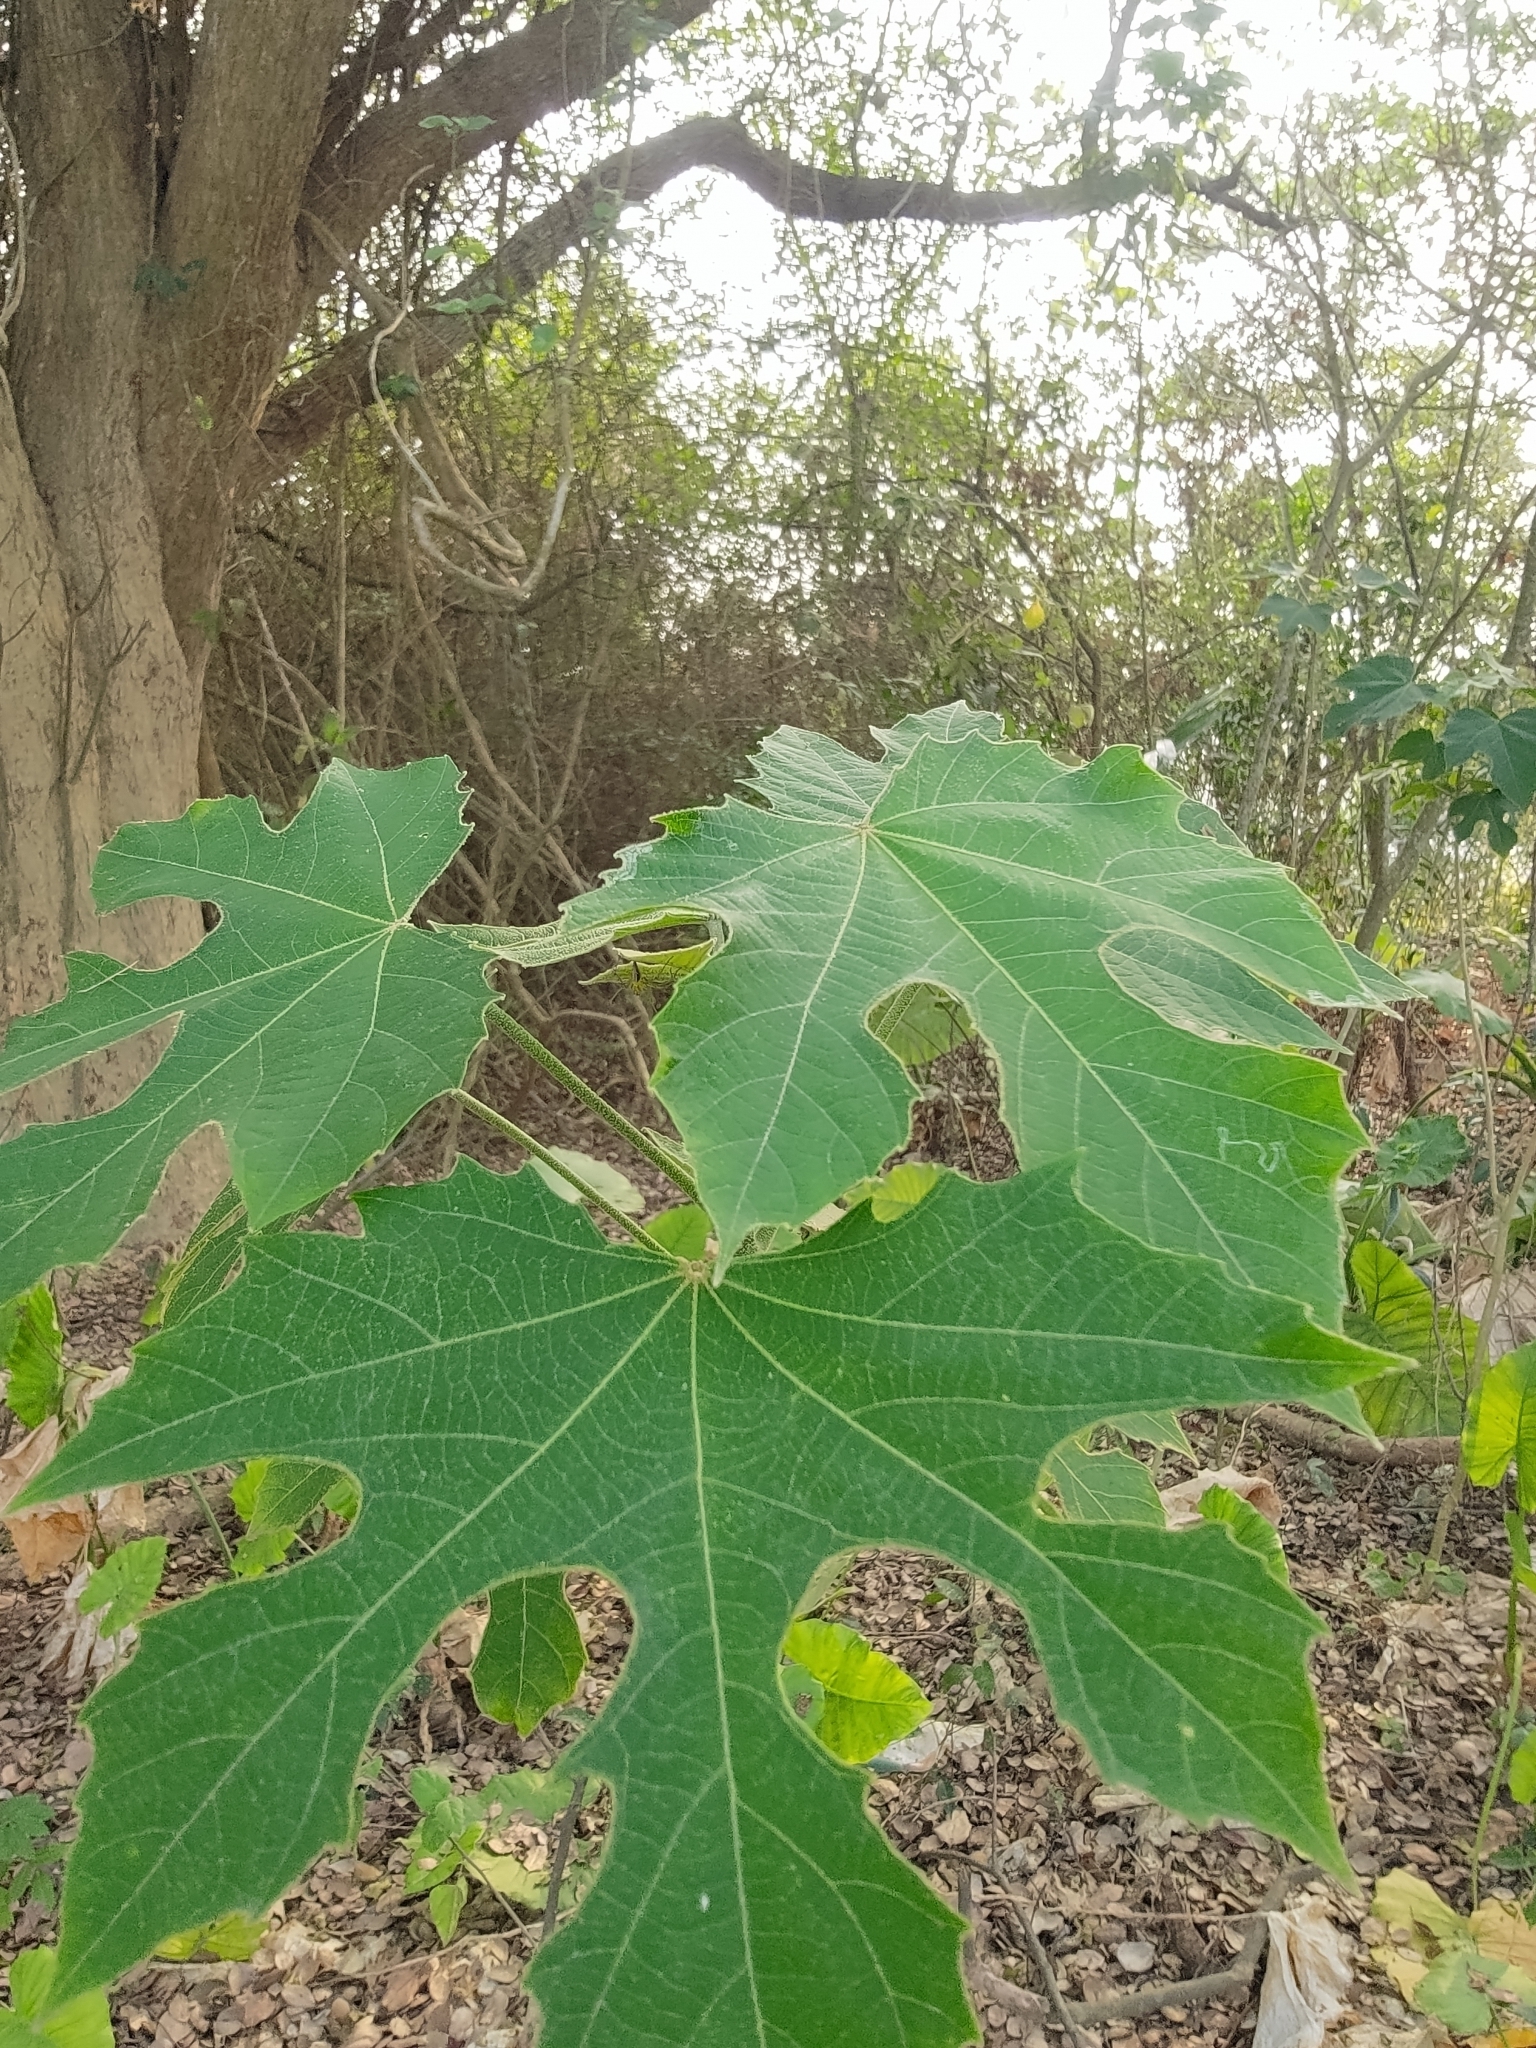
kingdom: Plantae
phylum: Tracheophyta
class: Magnoliopsida
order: Malpighiales
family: Euphorbiaceae
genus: Melanolepis
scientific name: Melanolepis multiglandulosa
